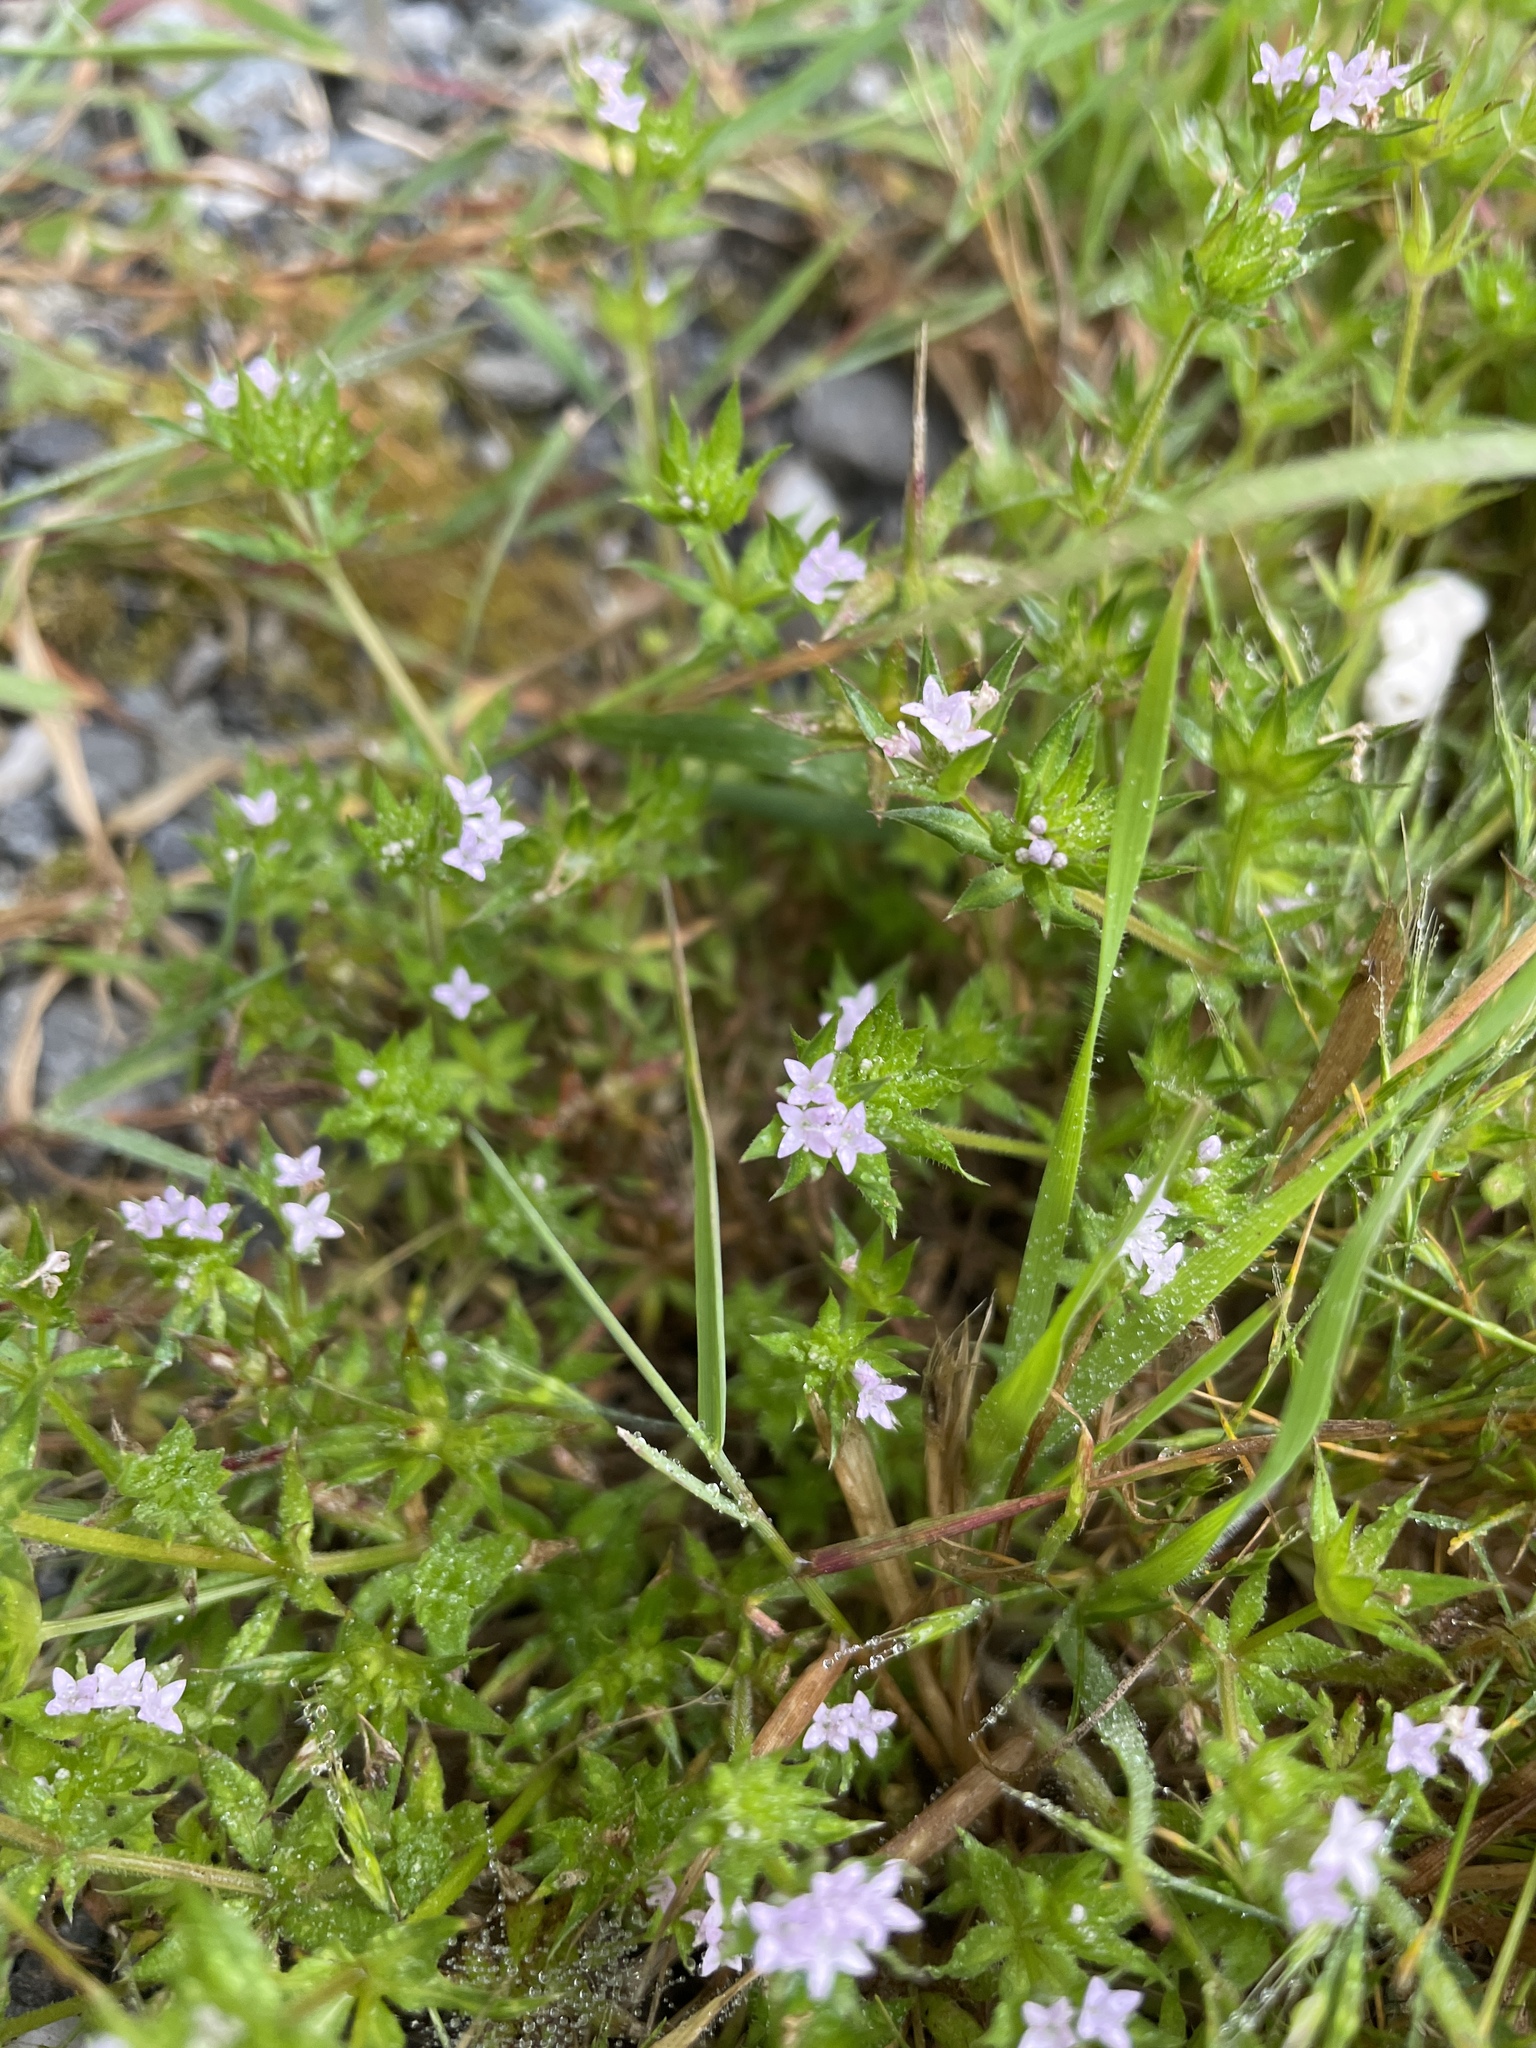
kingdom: Plantae
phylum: Tracheophyta
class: Magnoliopsida
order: Gentianales
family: Rubiaceae
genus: Sherardia
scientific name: Sherardia arvensis
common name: Field madder
